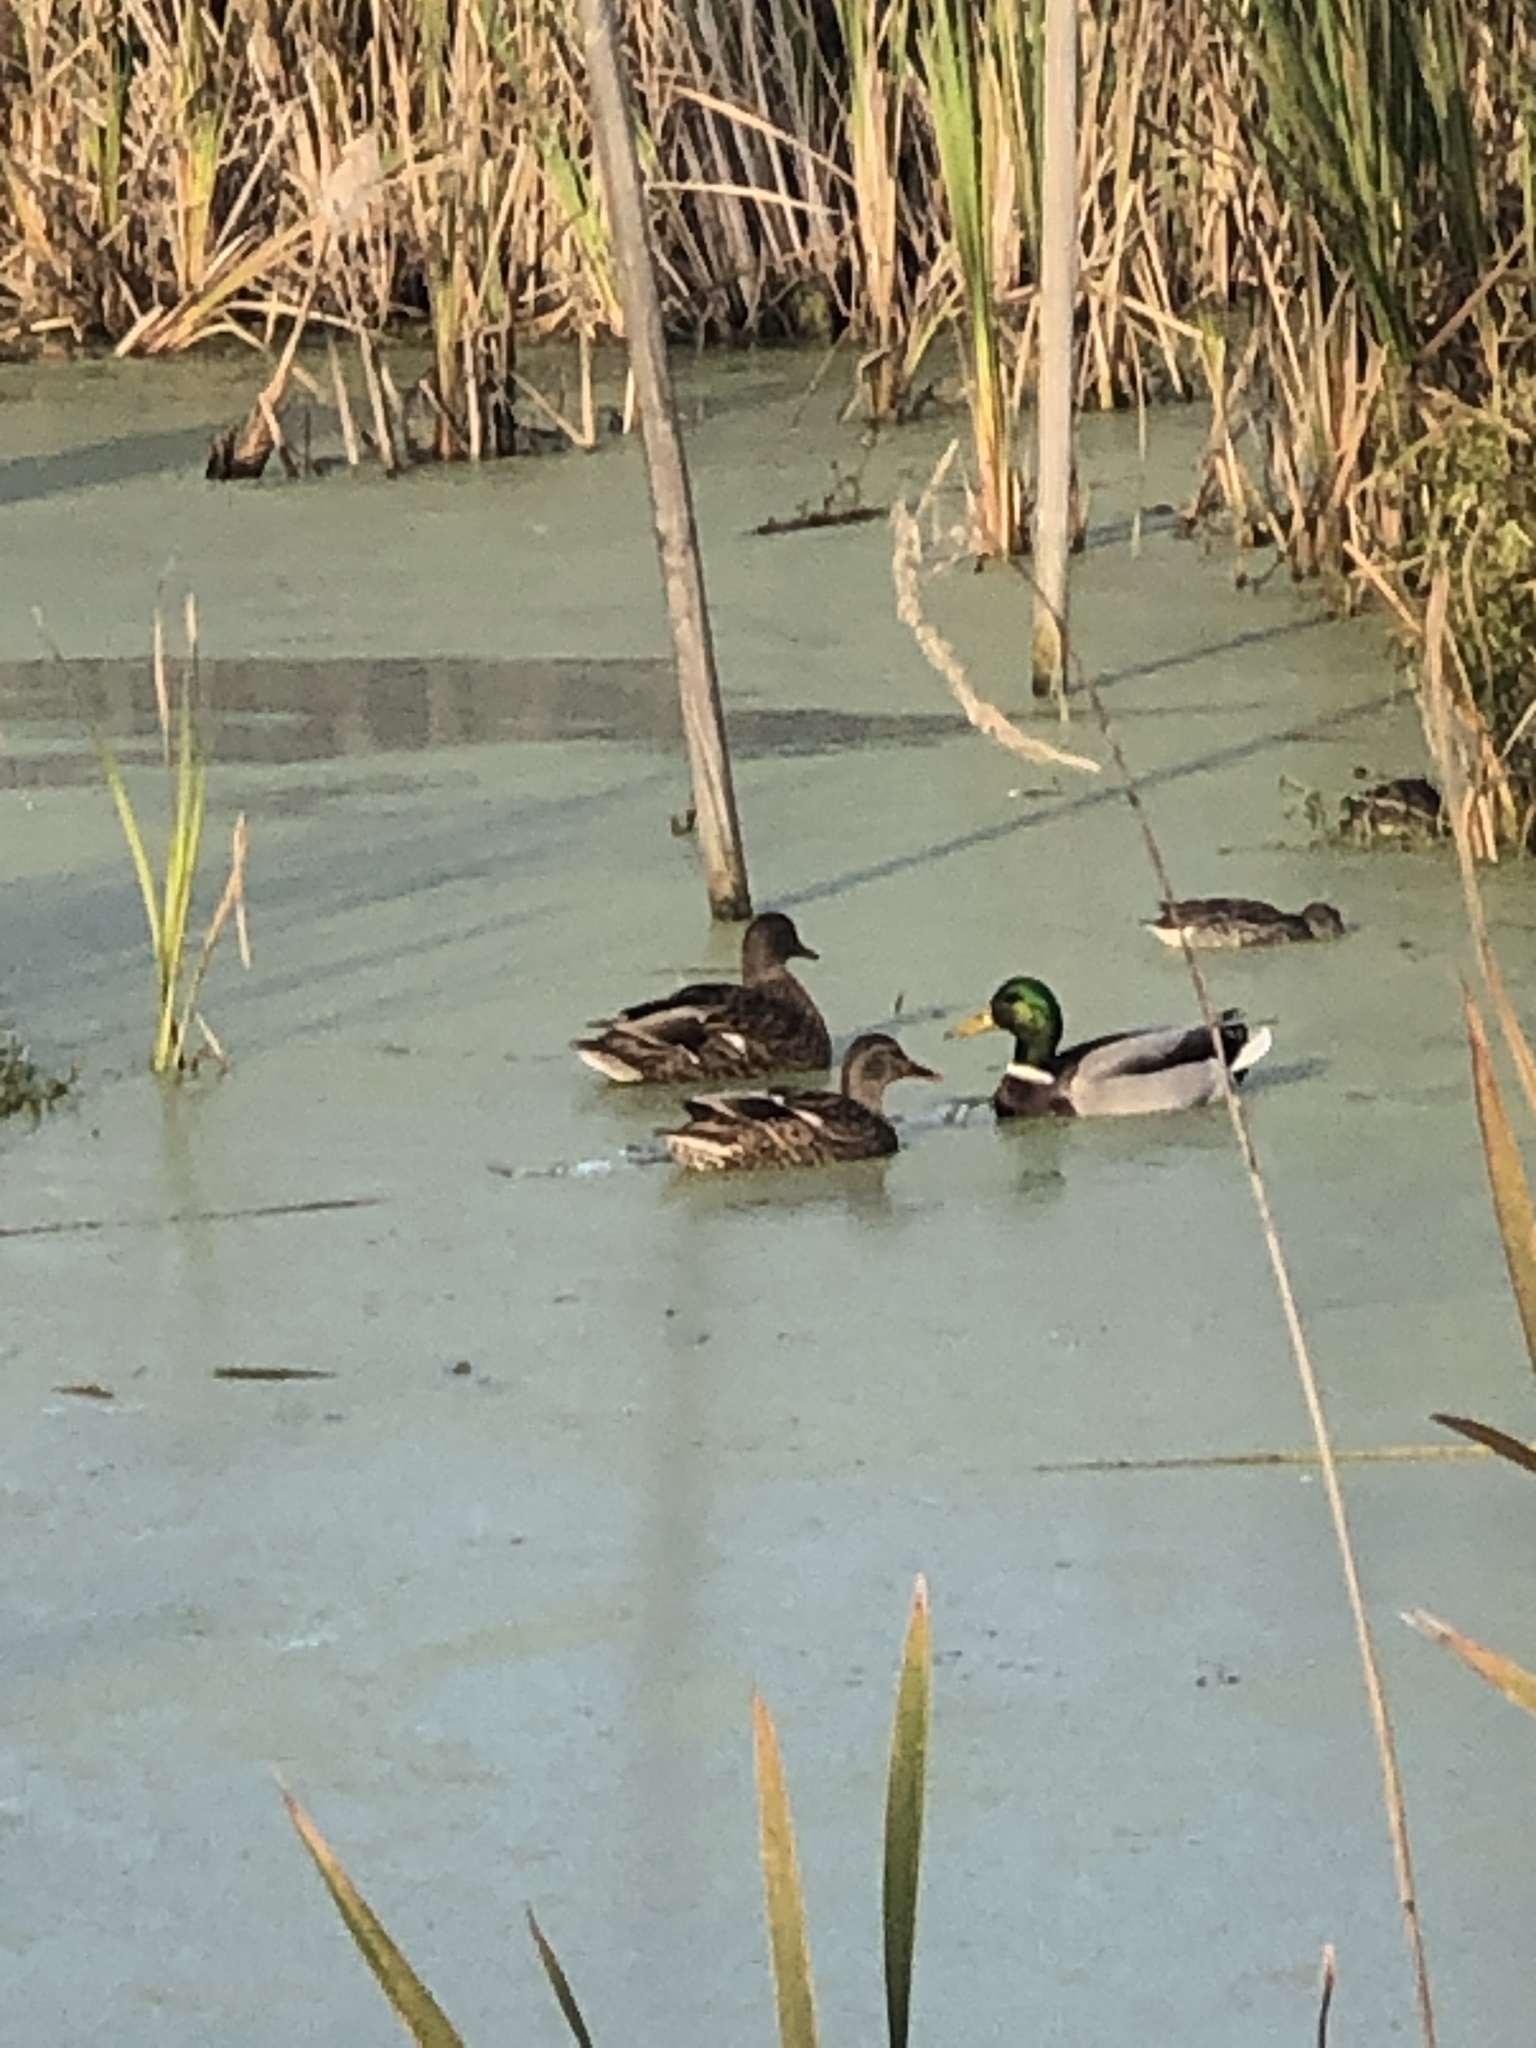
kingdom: Animalia
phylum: Chordata
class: Aves
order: Anseriformes
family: Anatidae
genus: Anas
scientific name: Anas platyrhynchos
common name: Mallard
